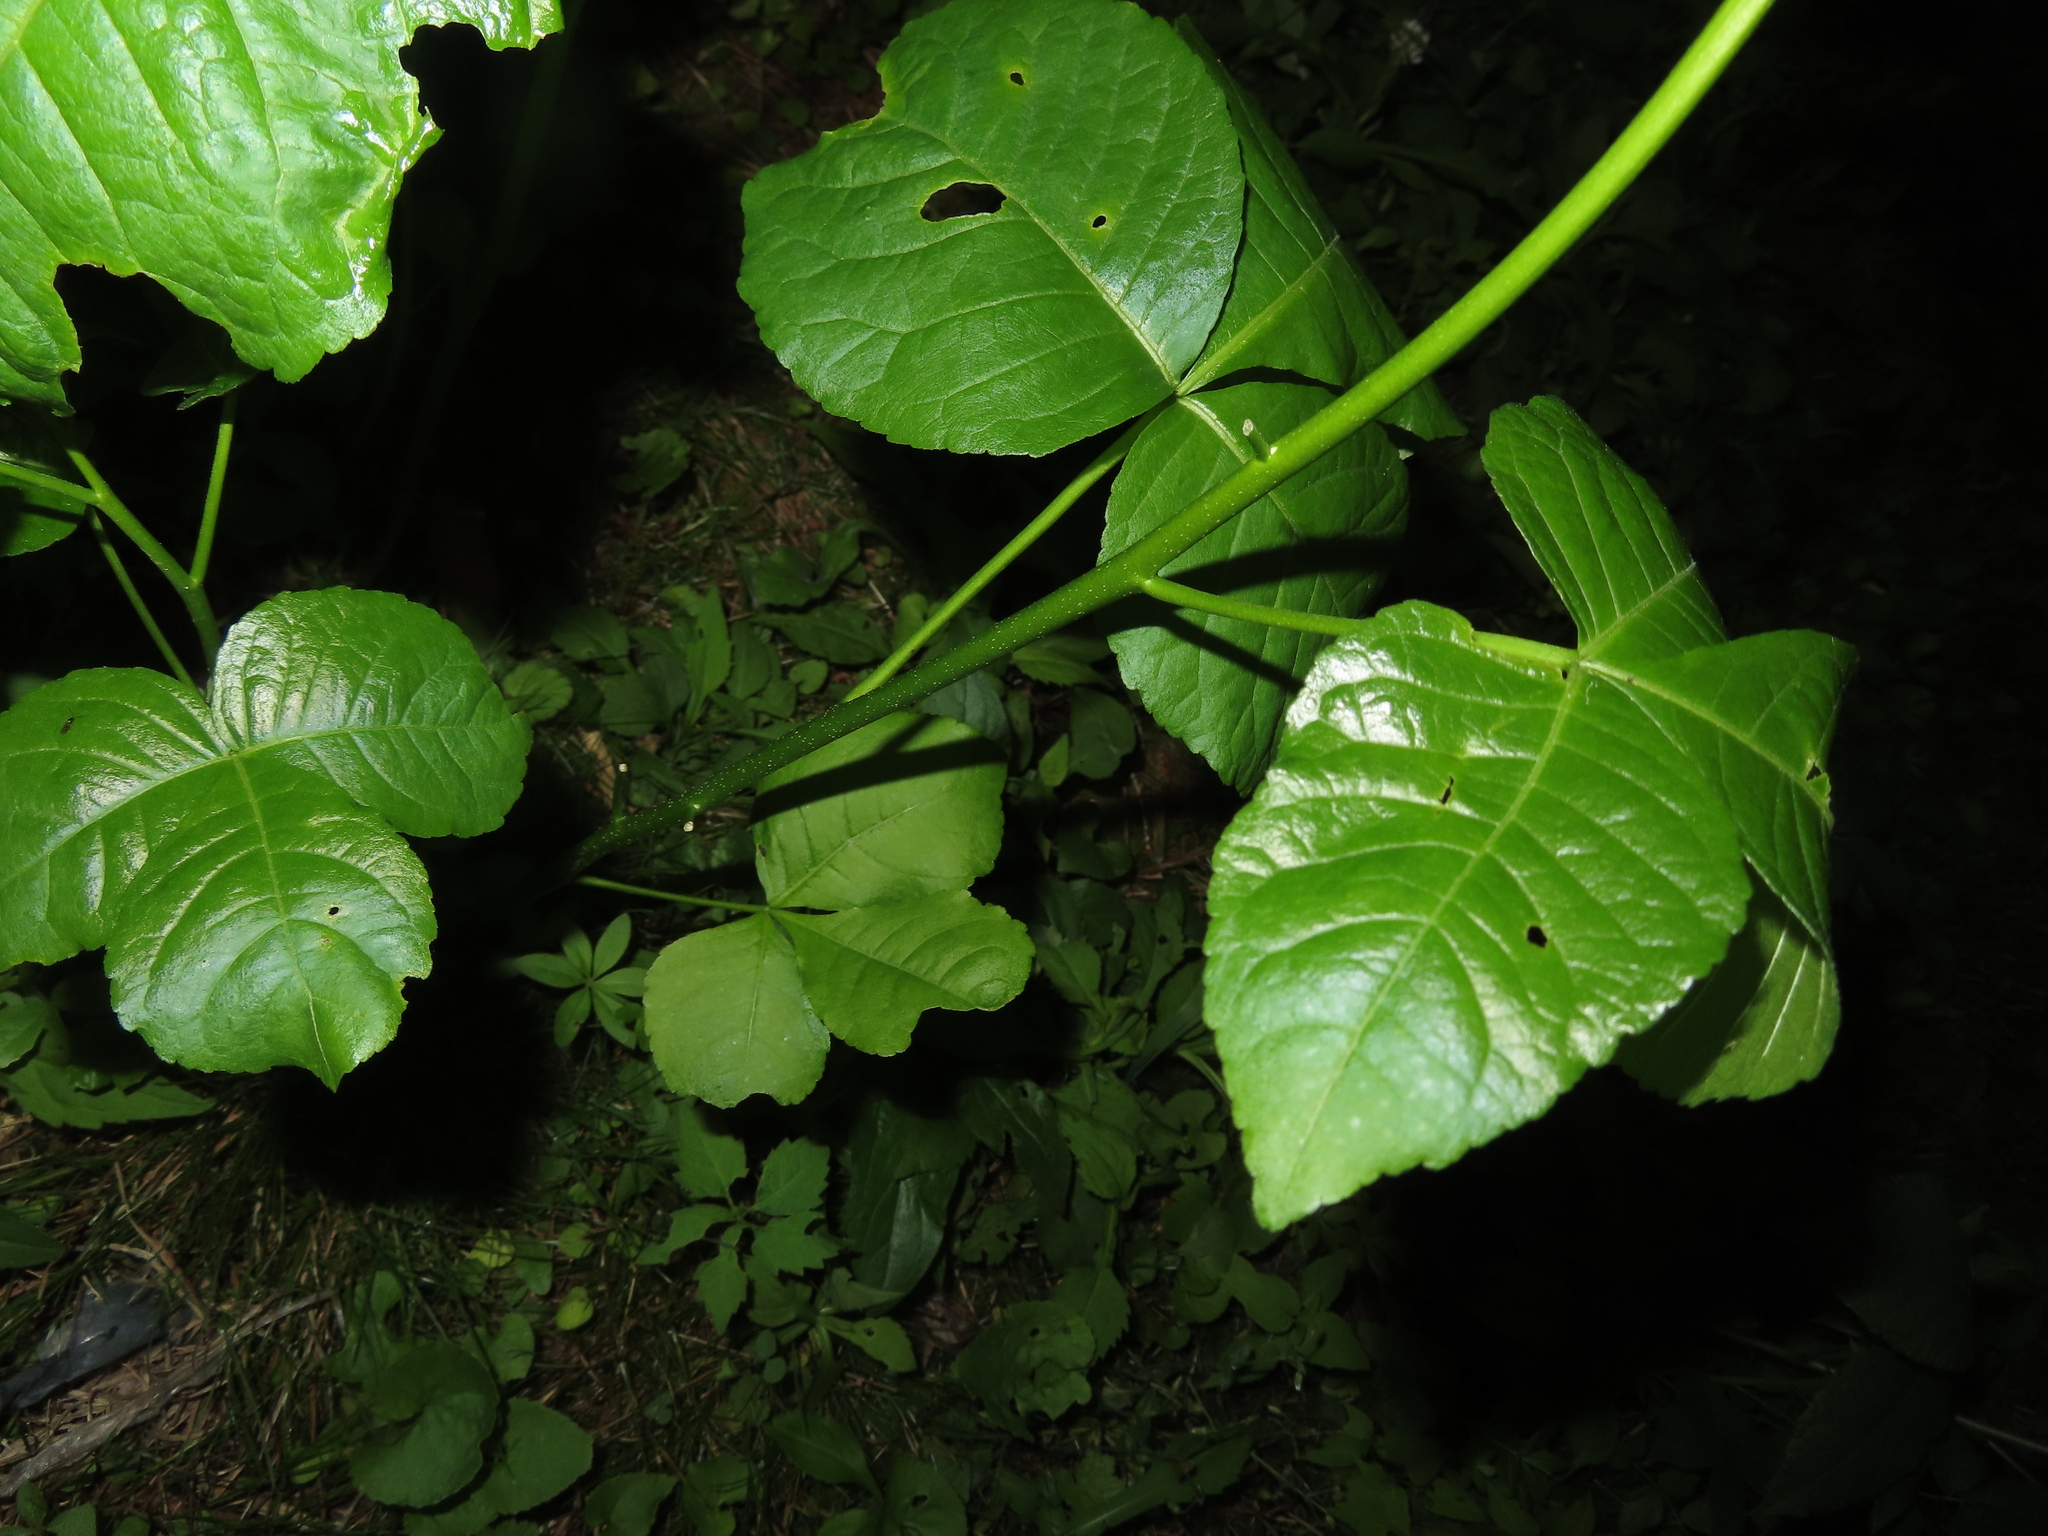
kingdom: Plantae
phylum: Tracheophyta
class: Magnoliopsida
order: Sapindales
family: Rutaceae
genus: Ptelea
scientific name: Ptelea trifoliata
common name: Common hop-tree
